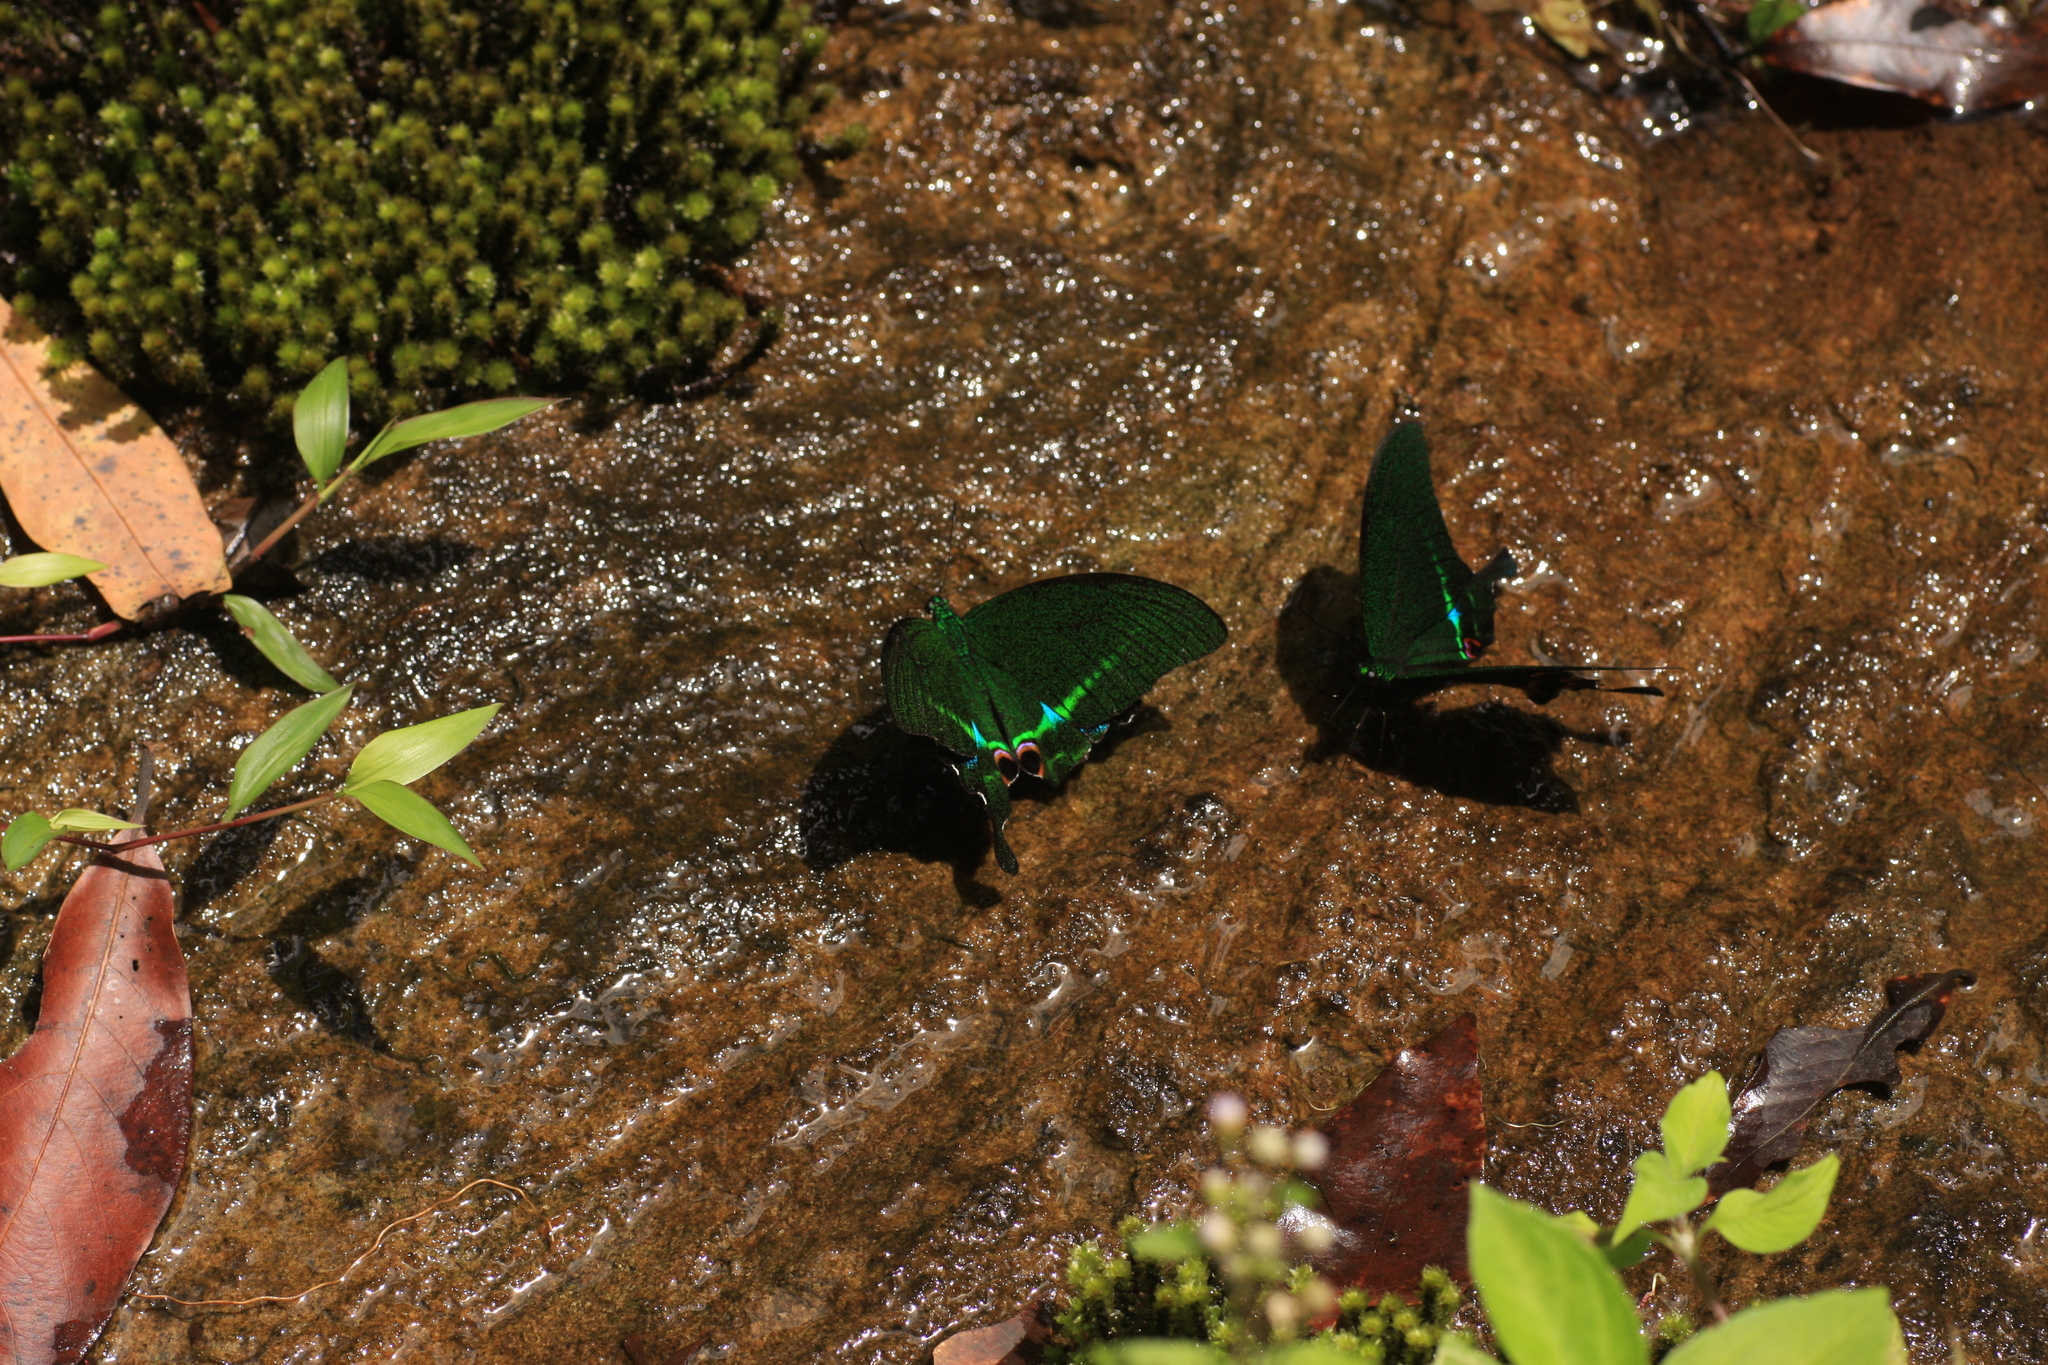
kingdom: Animalia
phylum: Arthropoda
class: Insecta
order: Lepidoptera
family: Papilionidae
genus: Papilio
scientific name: Papilio paris
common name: Paris peacock
